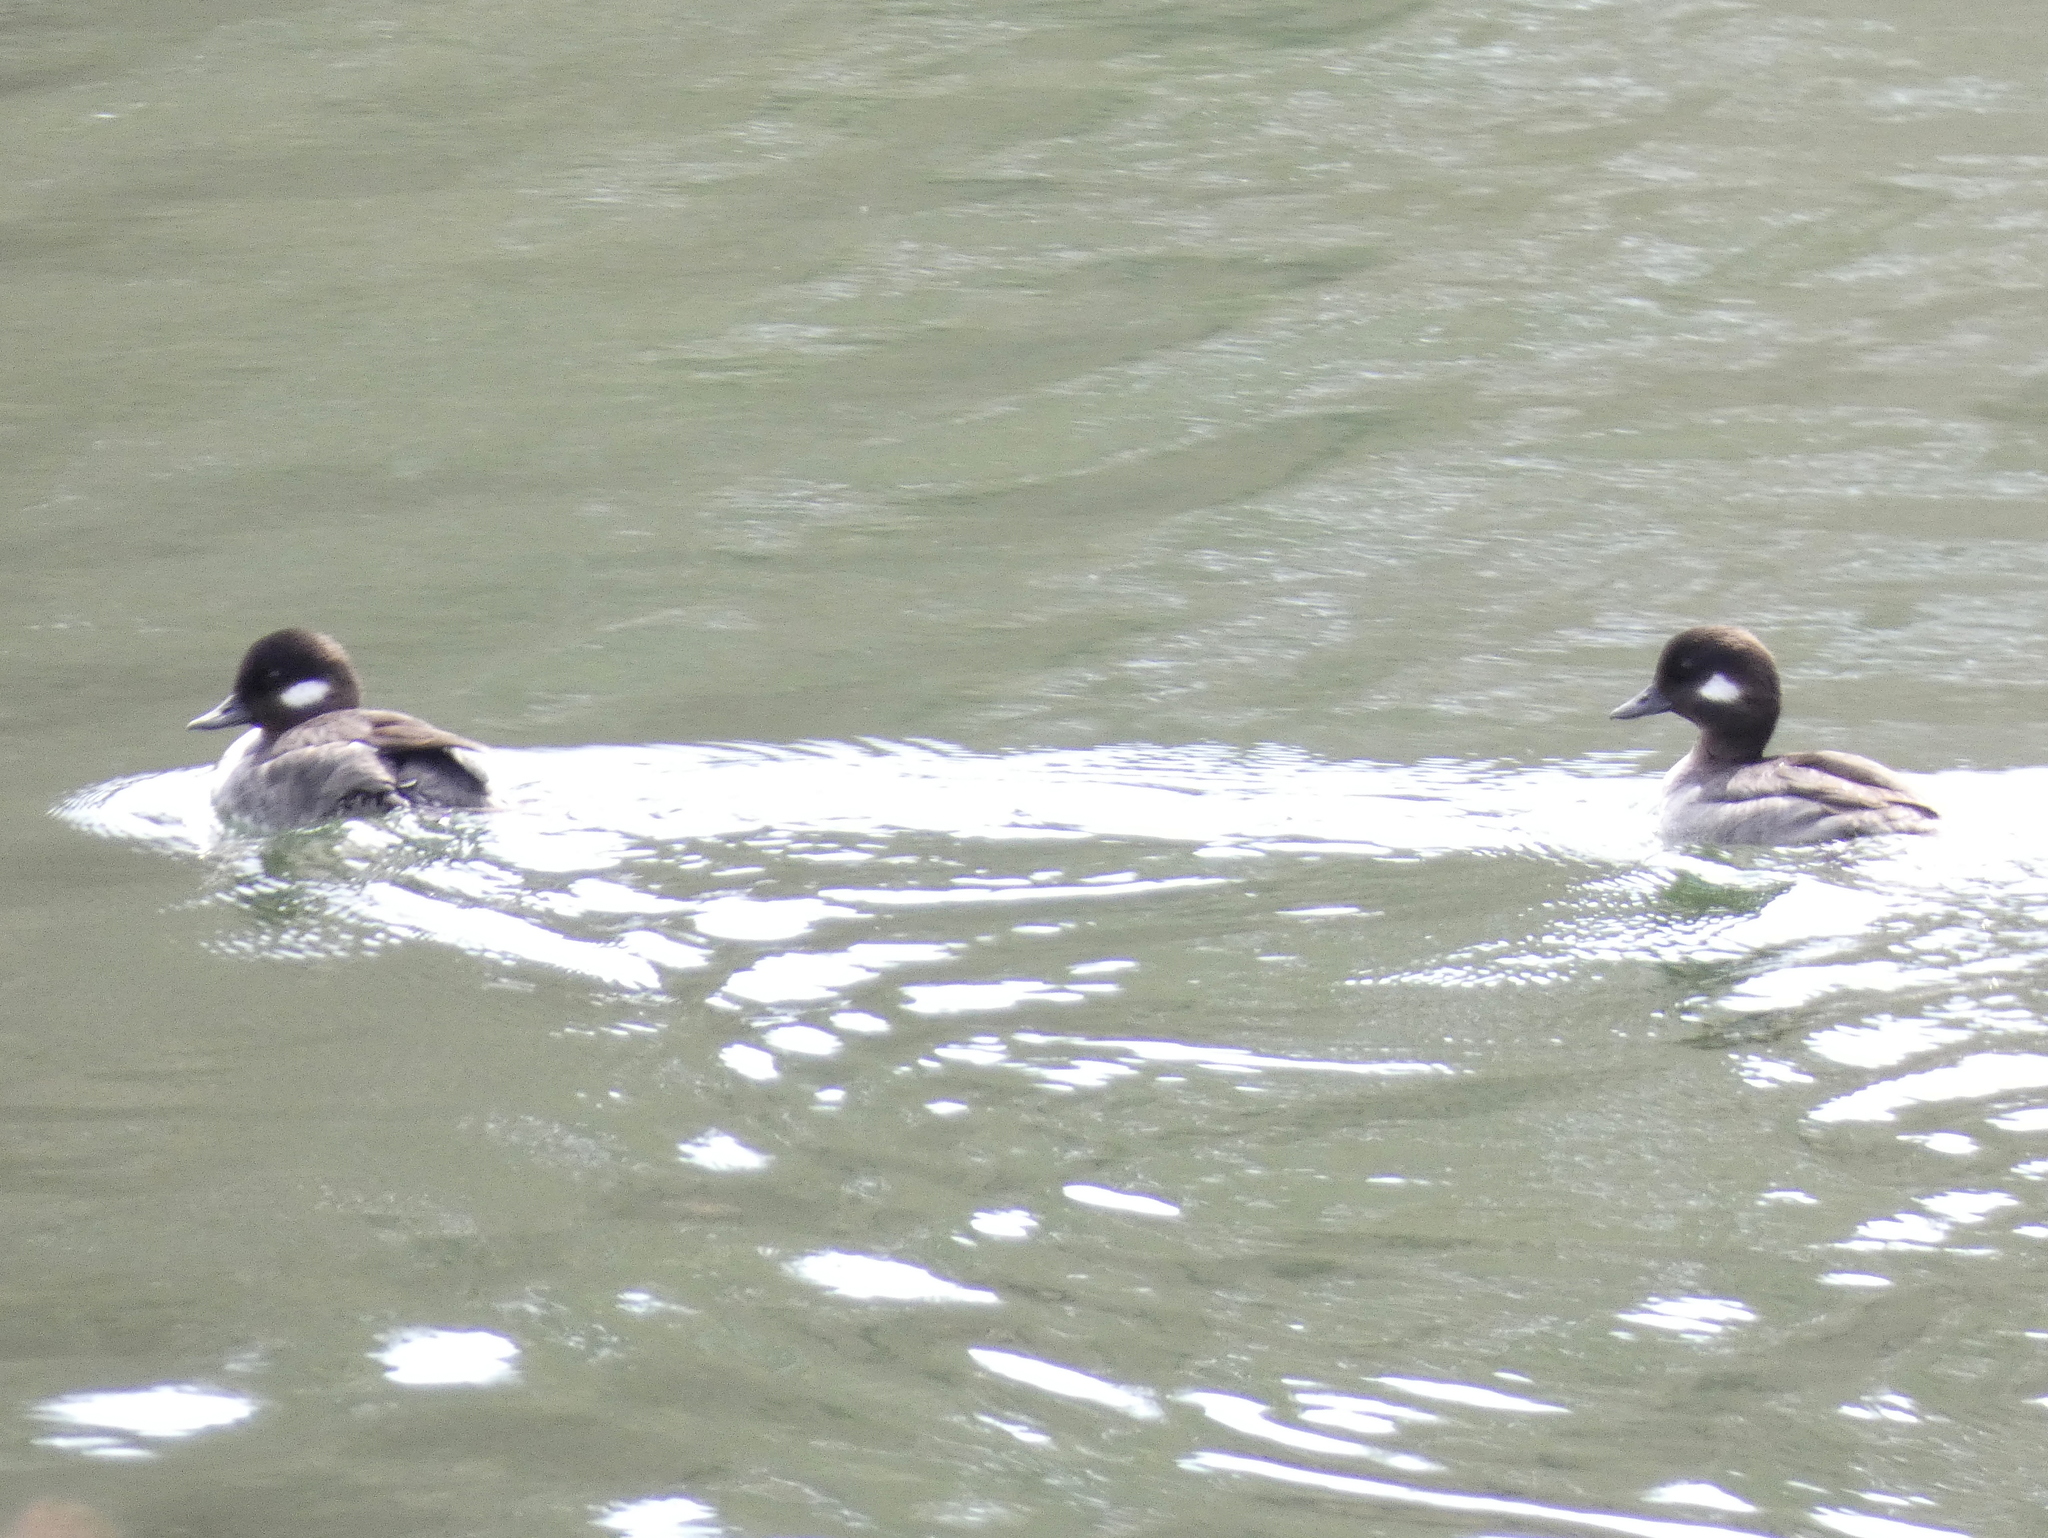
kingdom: Animalia
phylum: Chordata
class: Aves
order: Anseriformes
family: Anatidae
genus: Bucephala
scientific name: Bucephala albeola
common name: Bufflehead
